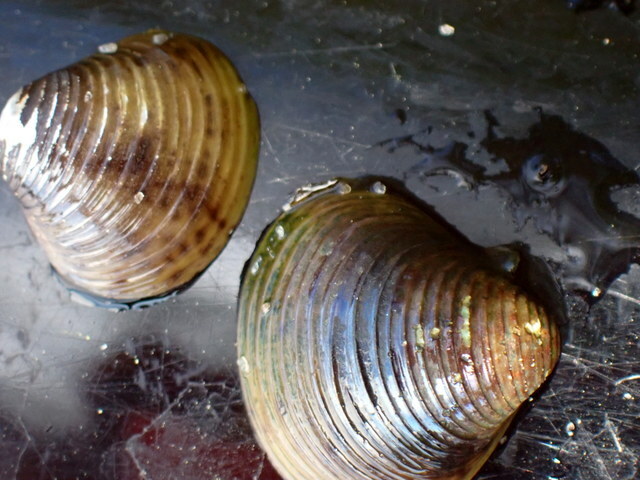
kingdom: Animalia
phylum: Mollusca
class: Bivalvia
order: Venerida
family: Cyrenidae
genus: Corbicula
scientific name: Corbicula fluminea
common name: Asian clam
